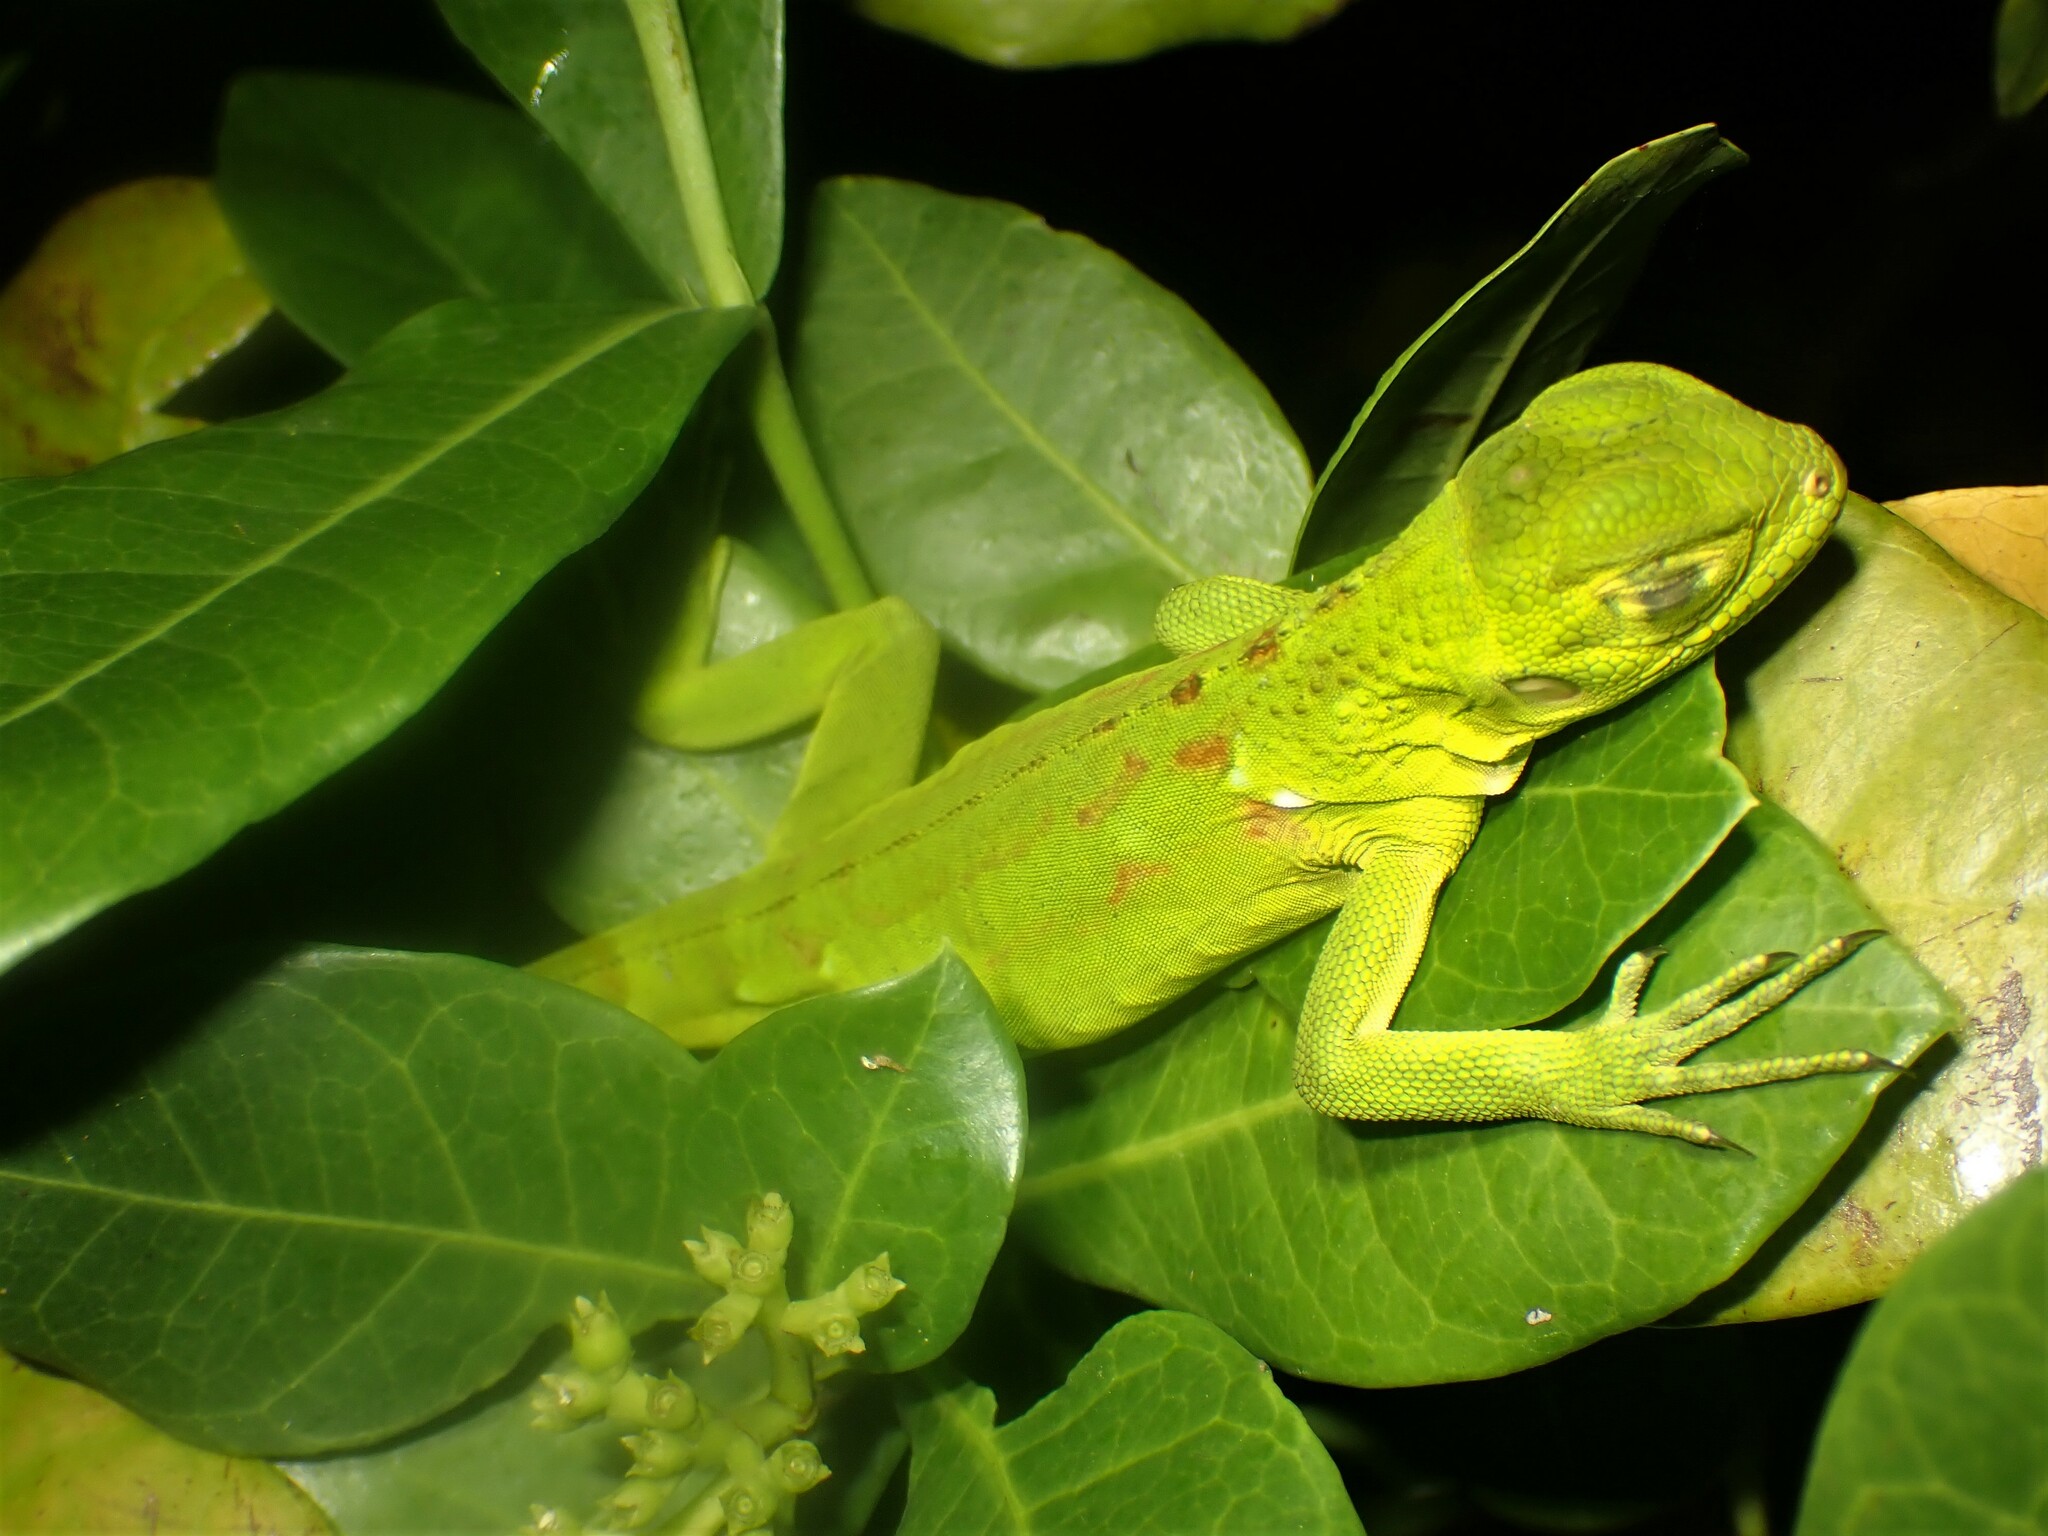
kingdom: Animalia
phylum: Chordata
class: Squamata
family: Iguanidae
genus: Iguana
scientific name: Iguana iguana
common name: Green iguana
